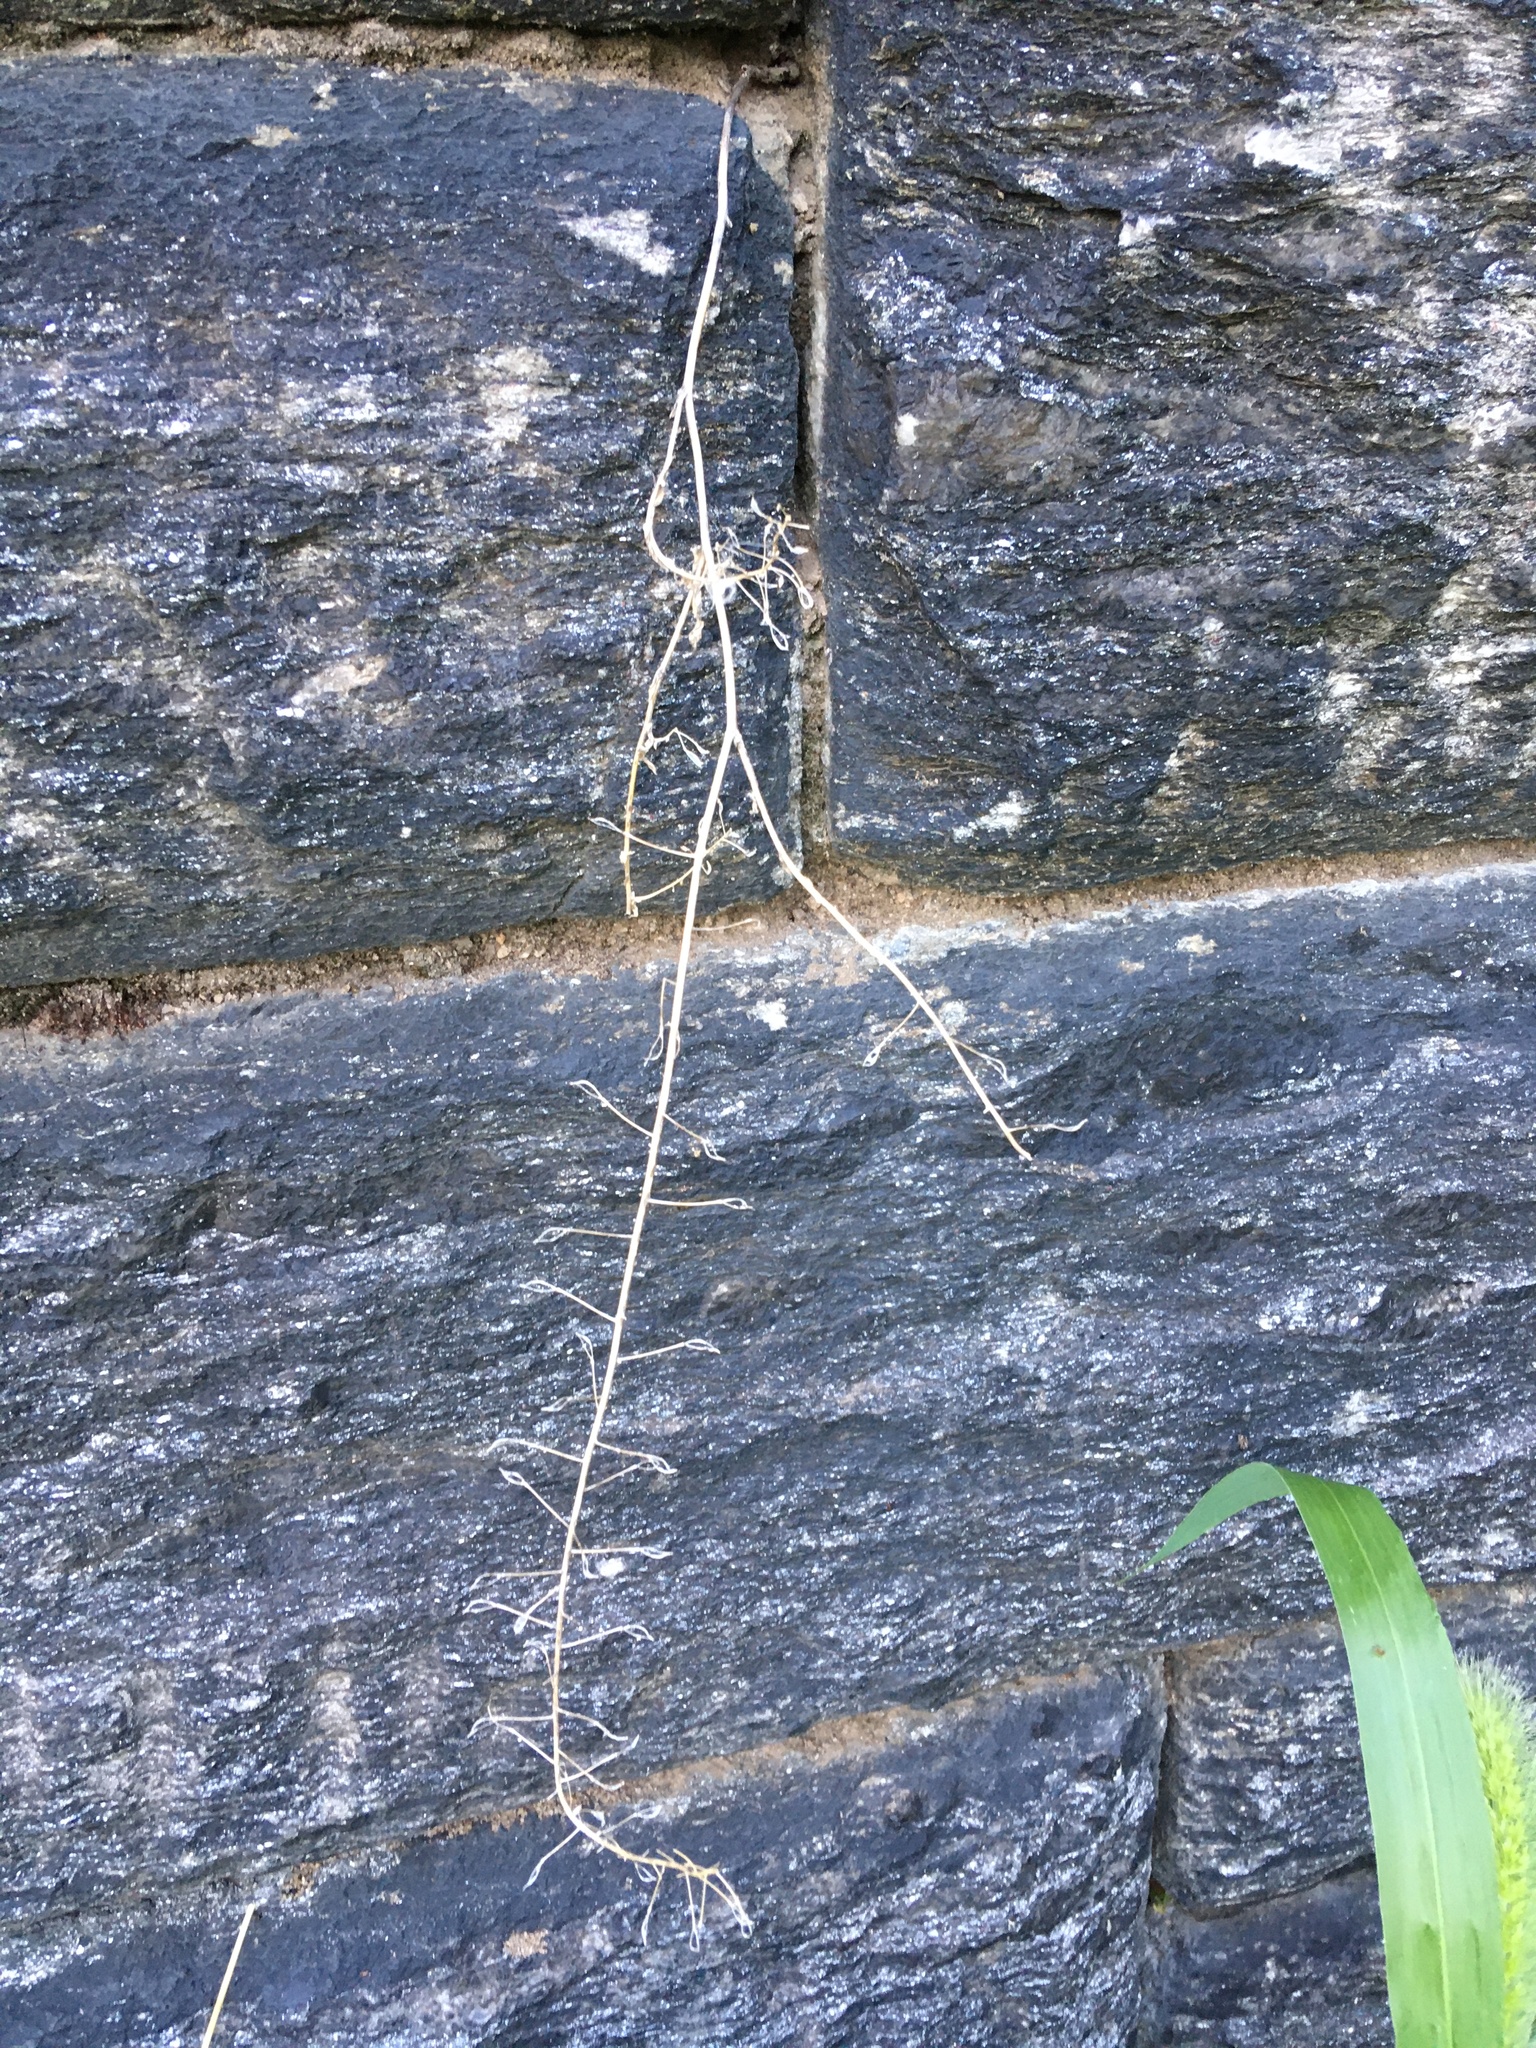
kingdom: Plantae
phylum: Tracheophyta
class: Magnoliopsida
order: Brassicales
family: Brassicaceae
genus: Capsella
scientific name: Capsella bursa-pastoris
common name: Shepherd's purse
